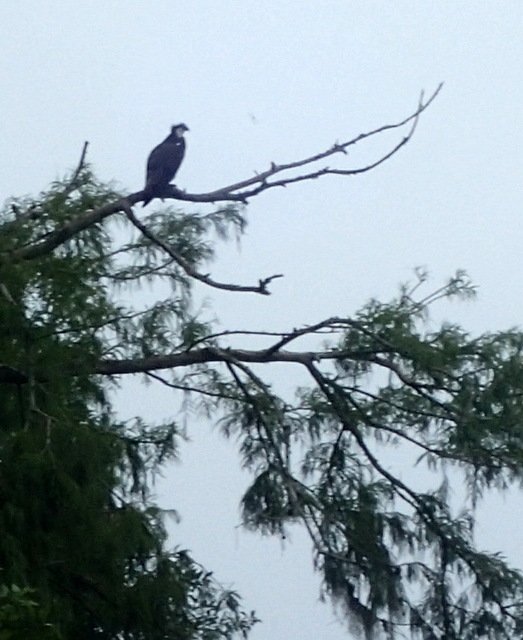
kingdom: Animalia
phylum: Chordata
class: Aves
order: Accipitriformes
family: Pandionidae
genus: Pandion
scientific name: Pandion haliaetus
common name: Osprey
